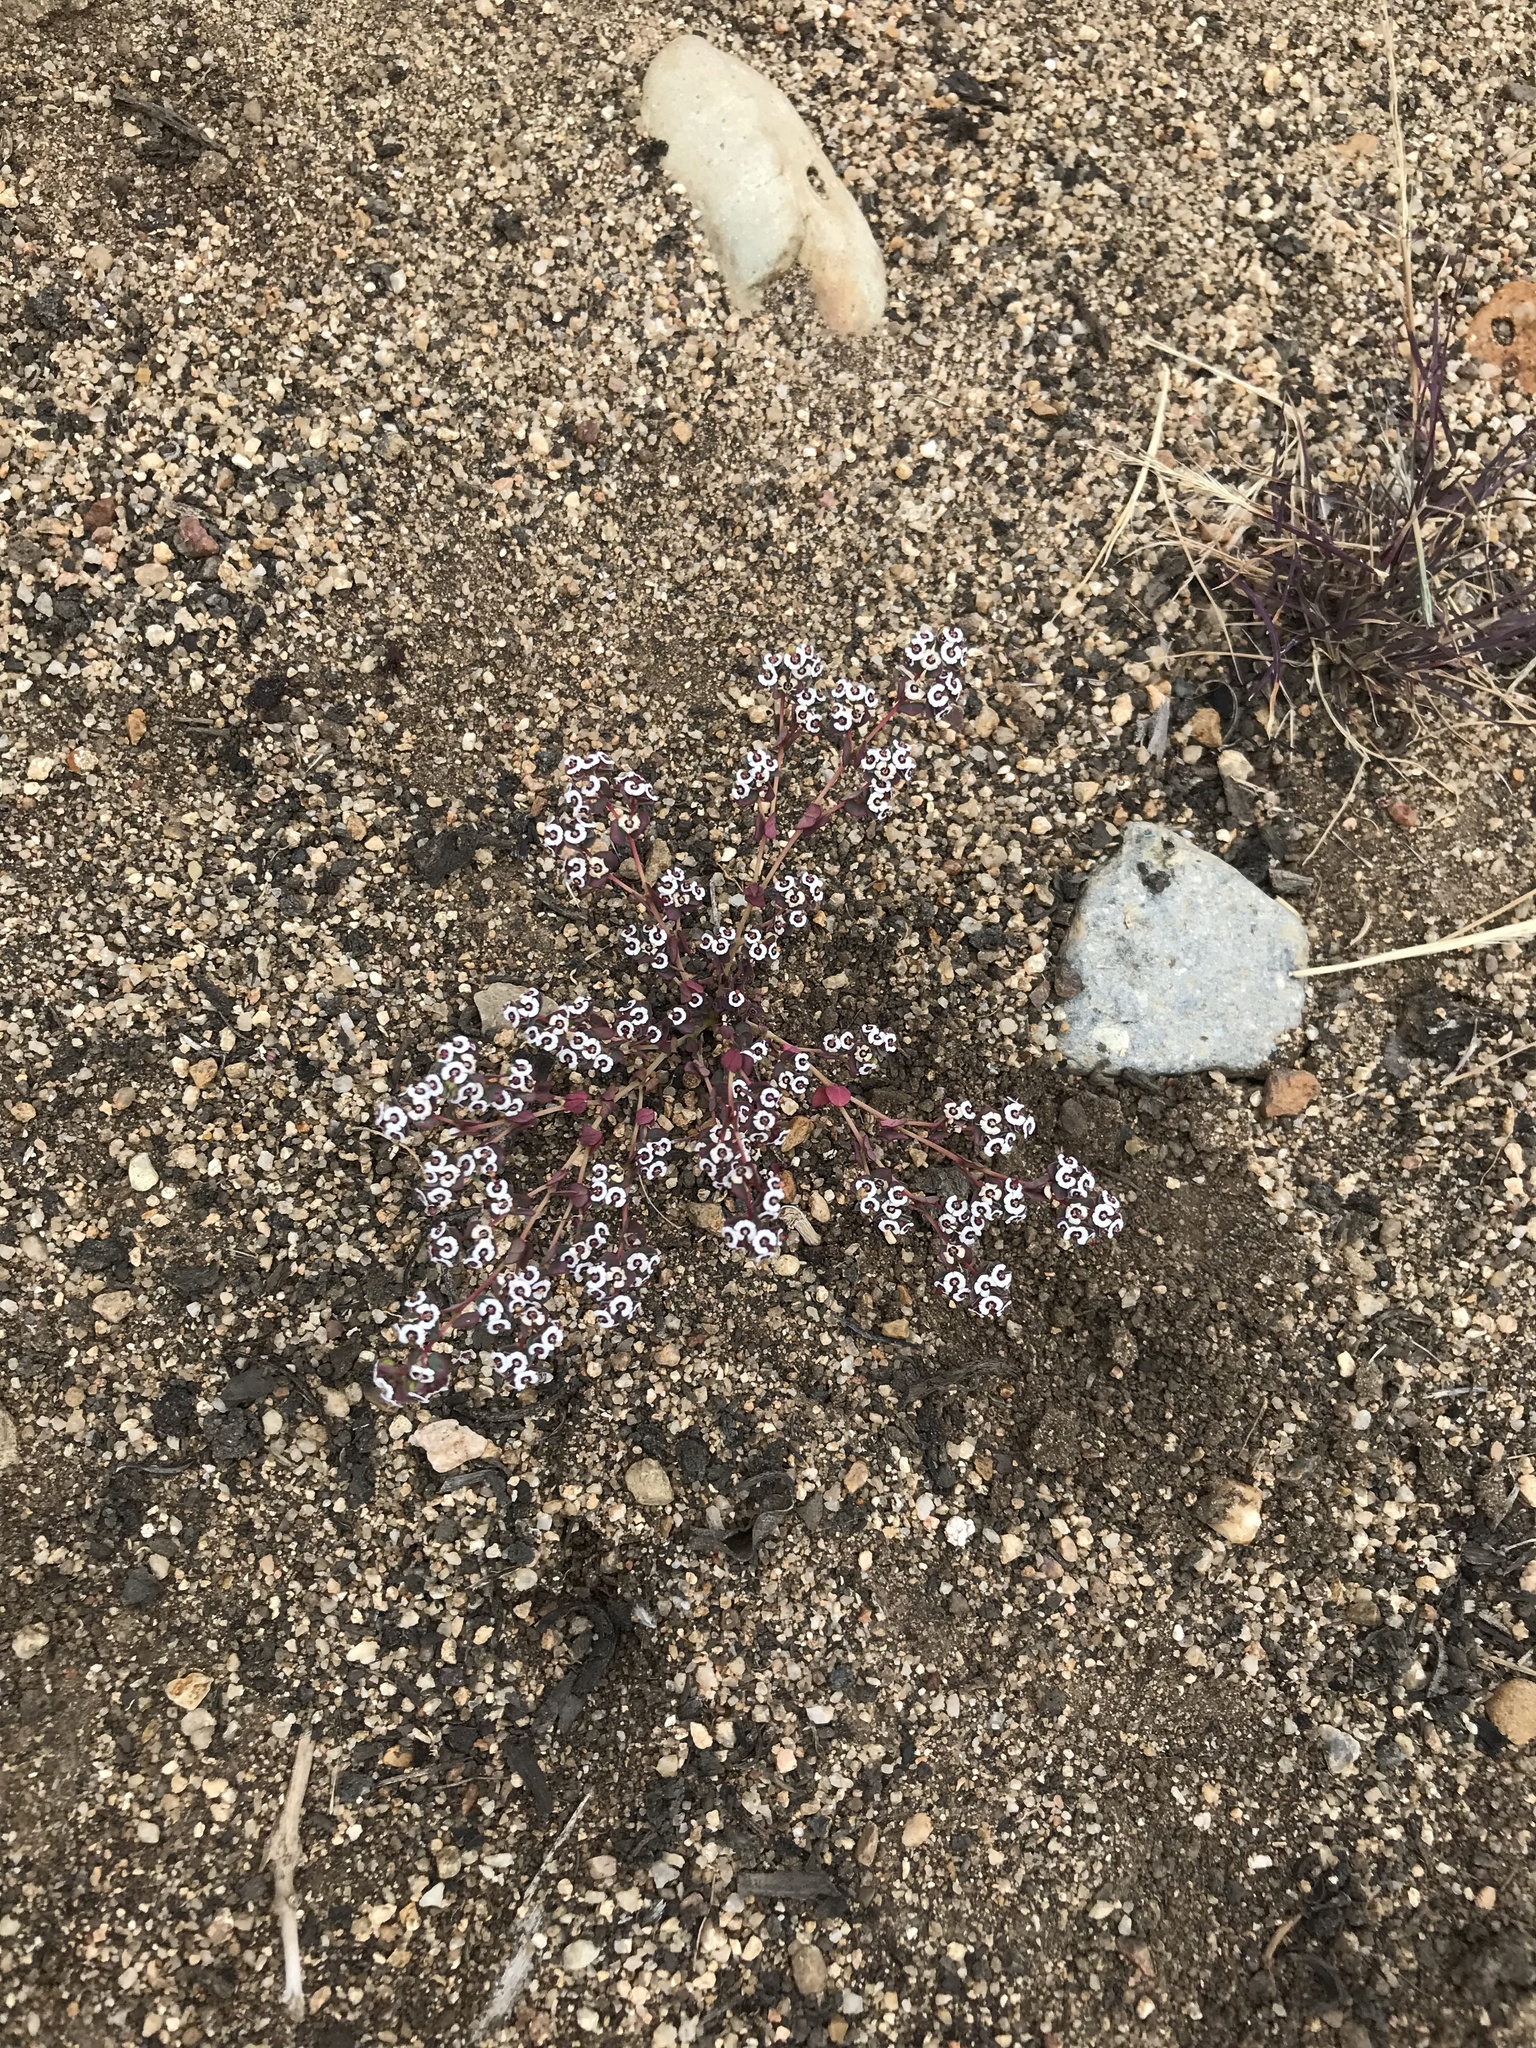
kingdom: Plantae
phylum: Tracheophyta
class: Magnoliopsida
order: Malpighiales
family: Euphorbiaceae
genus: Euphorbia
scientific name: Euphorbia polycarpa
